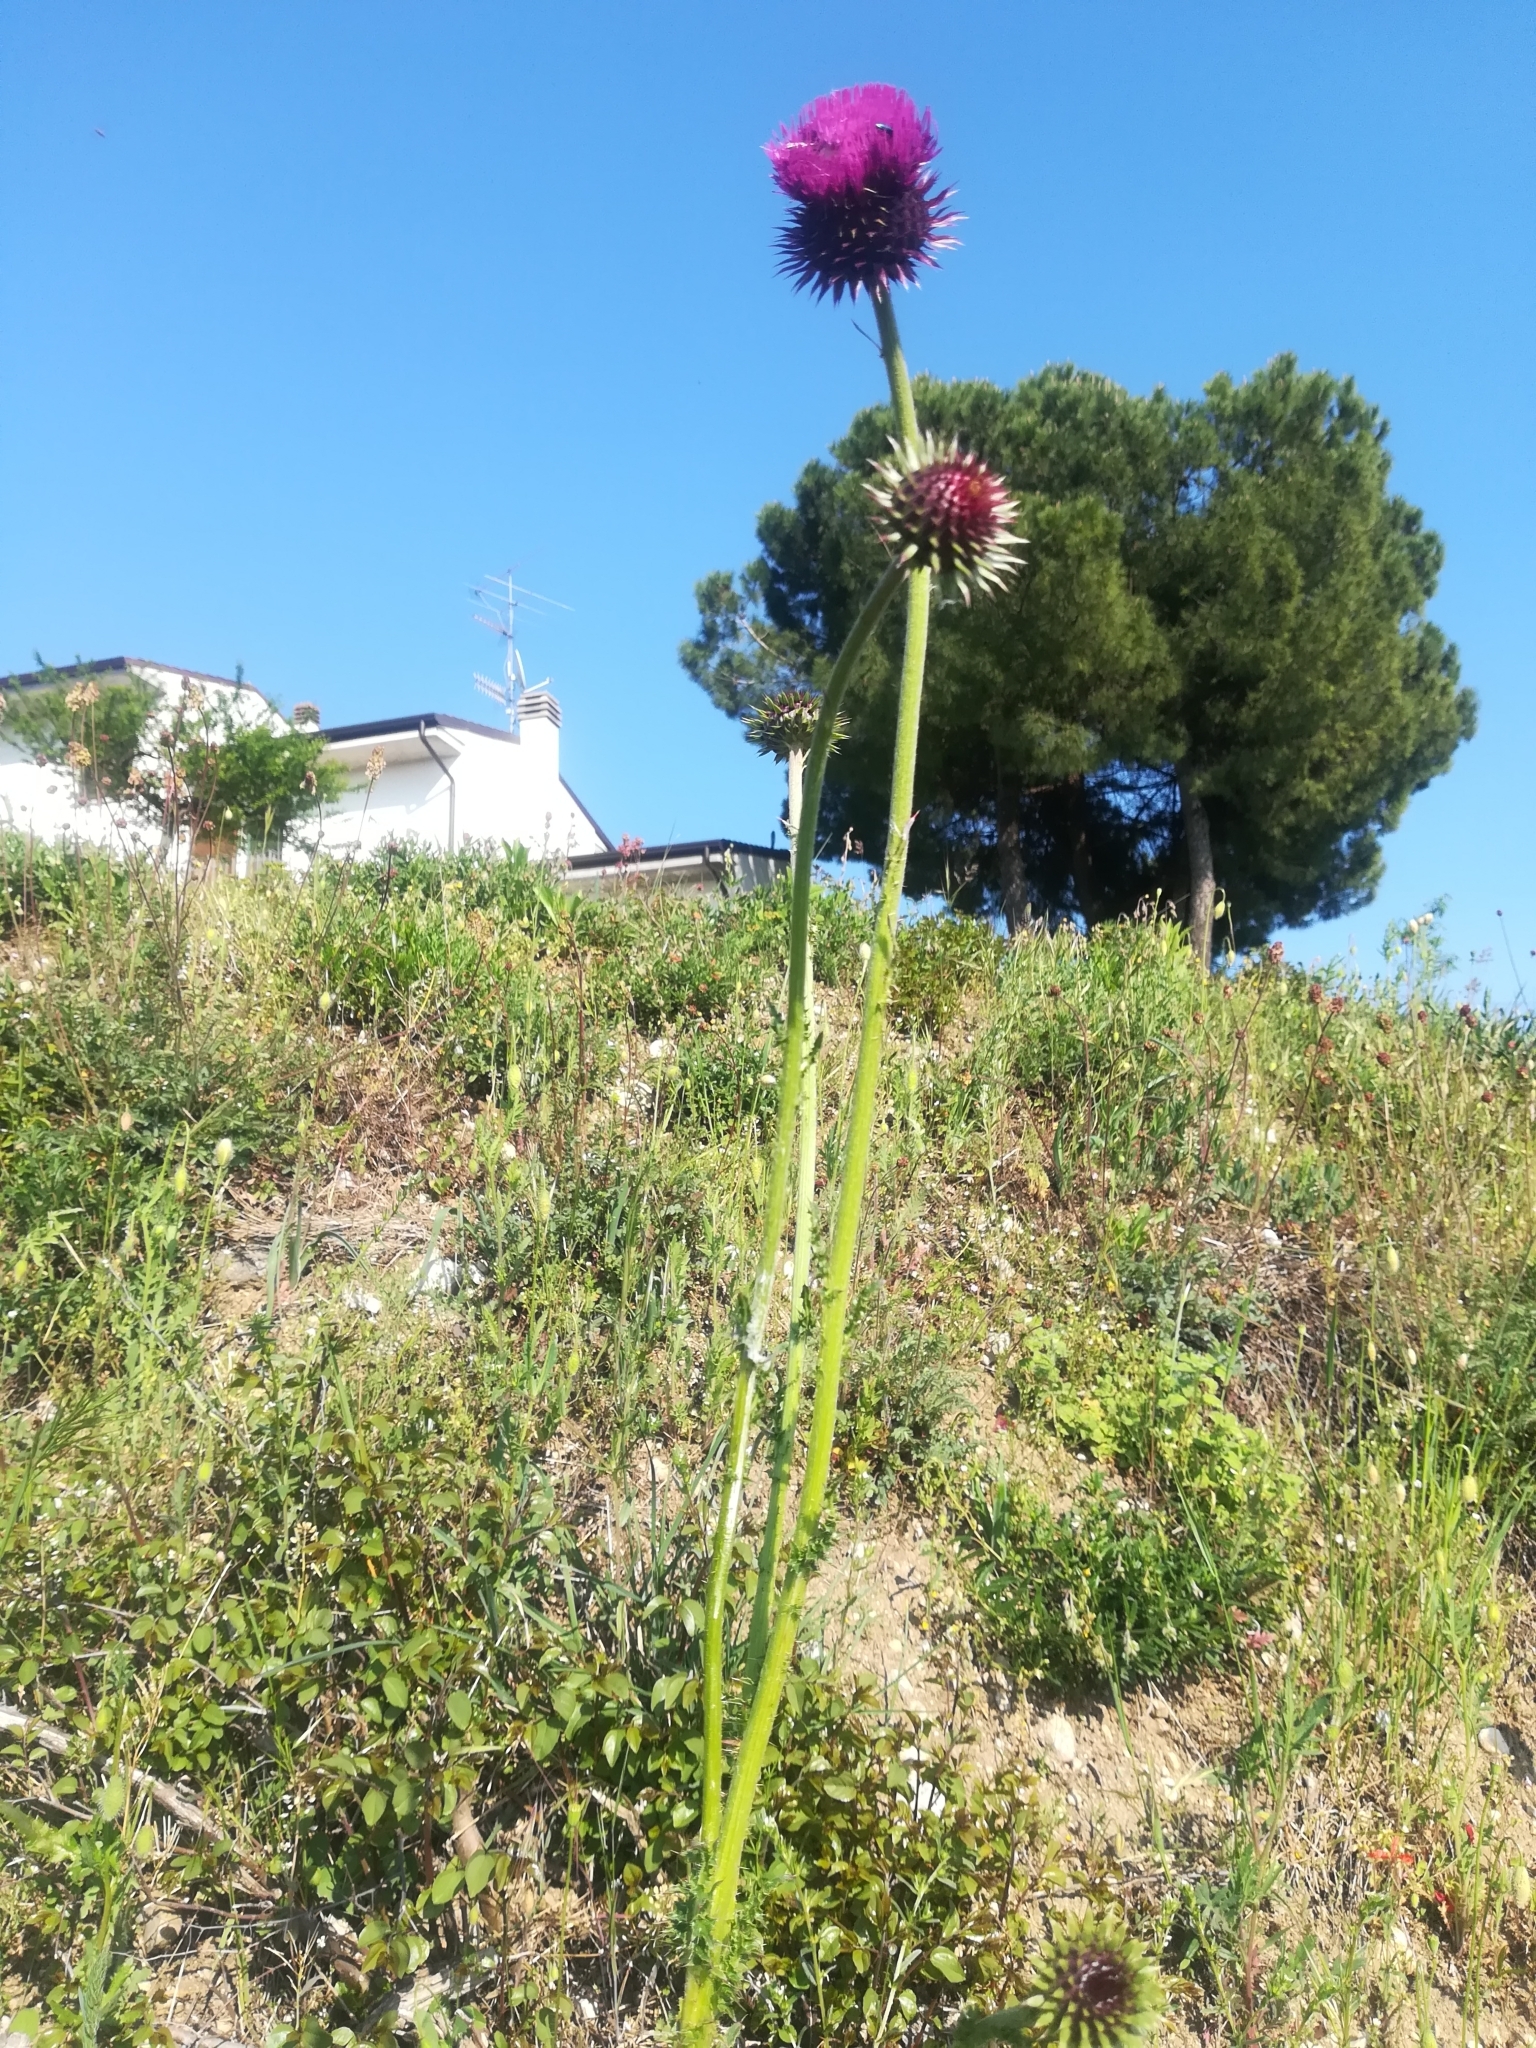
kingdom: Plantae
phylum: Tracheophyta
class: Magnoliopsida
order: Asterales
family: Asteraceae
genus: Carduus
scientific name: Carduus nutans
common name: Musk thistle
